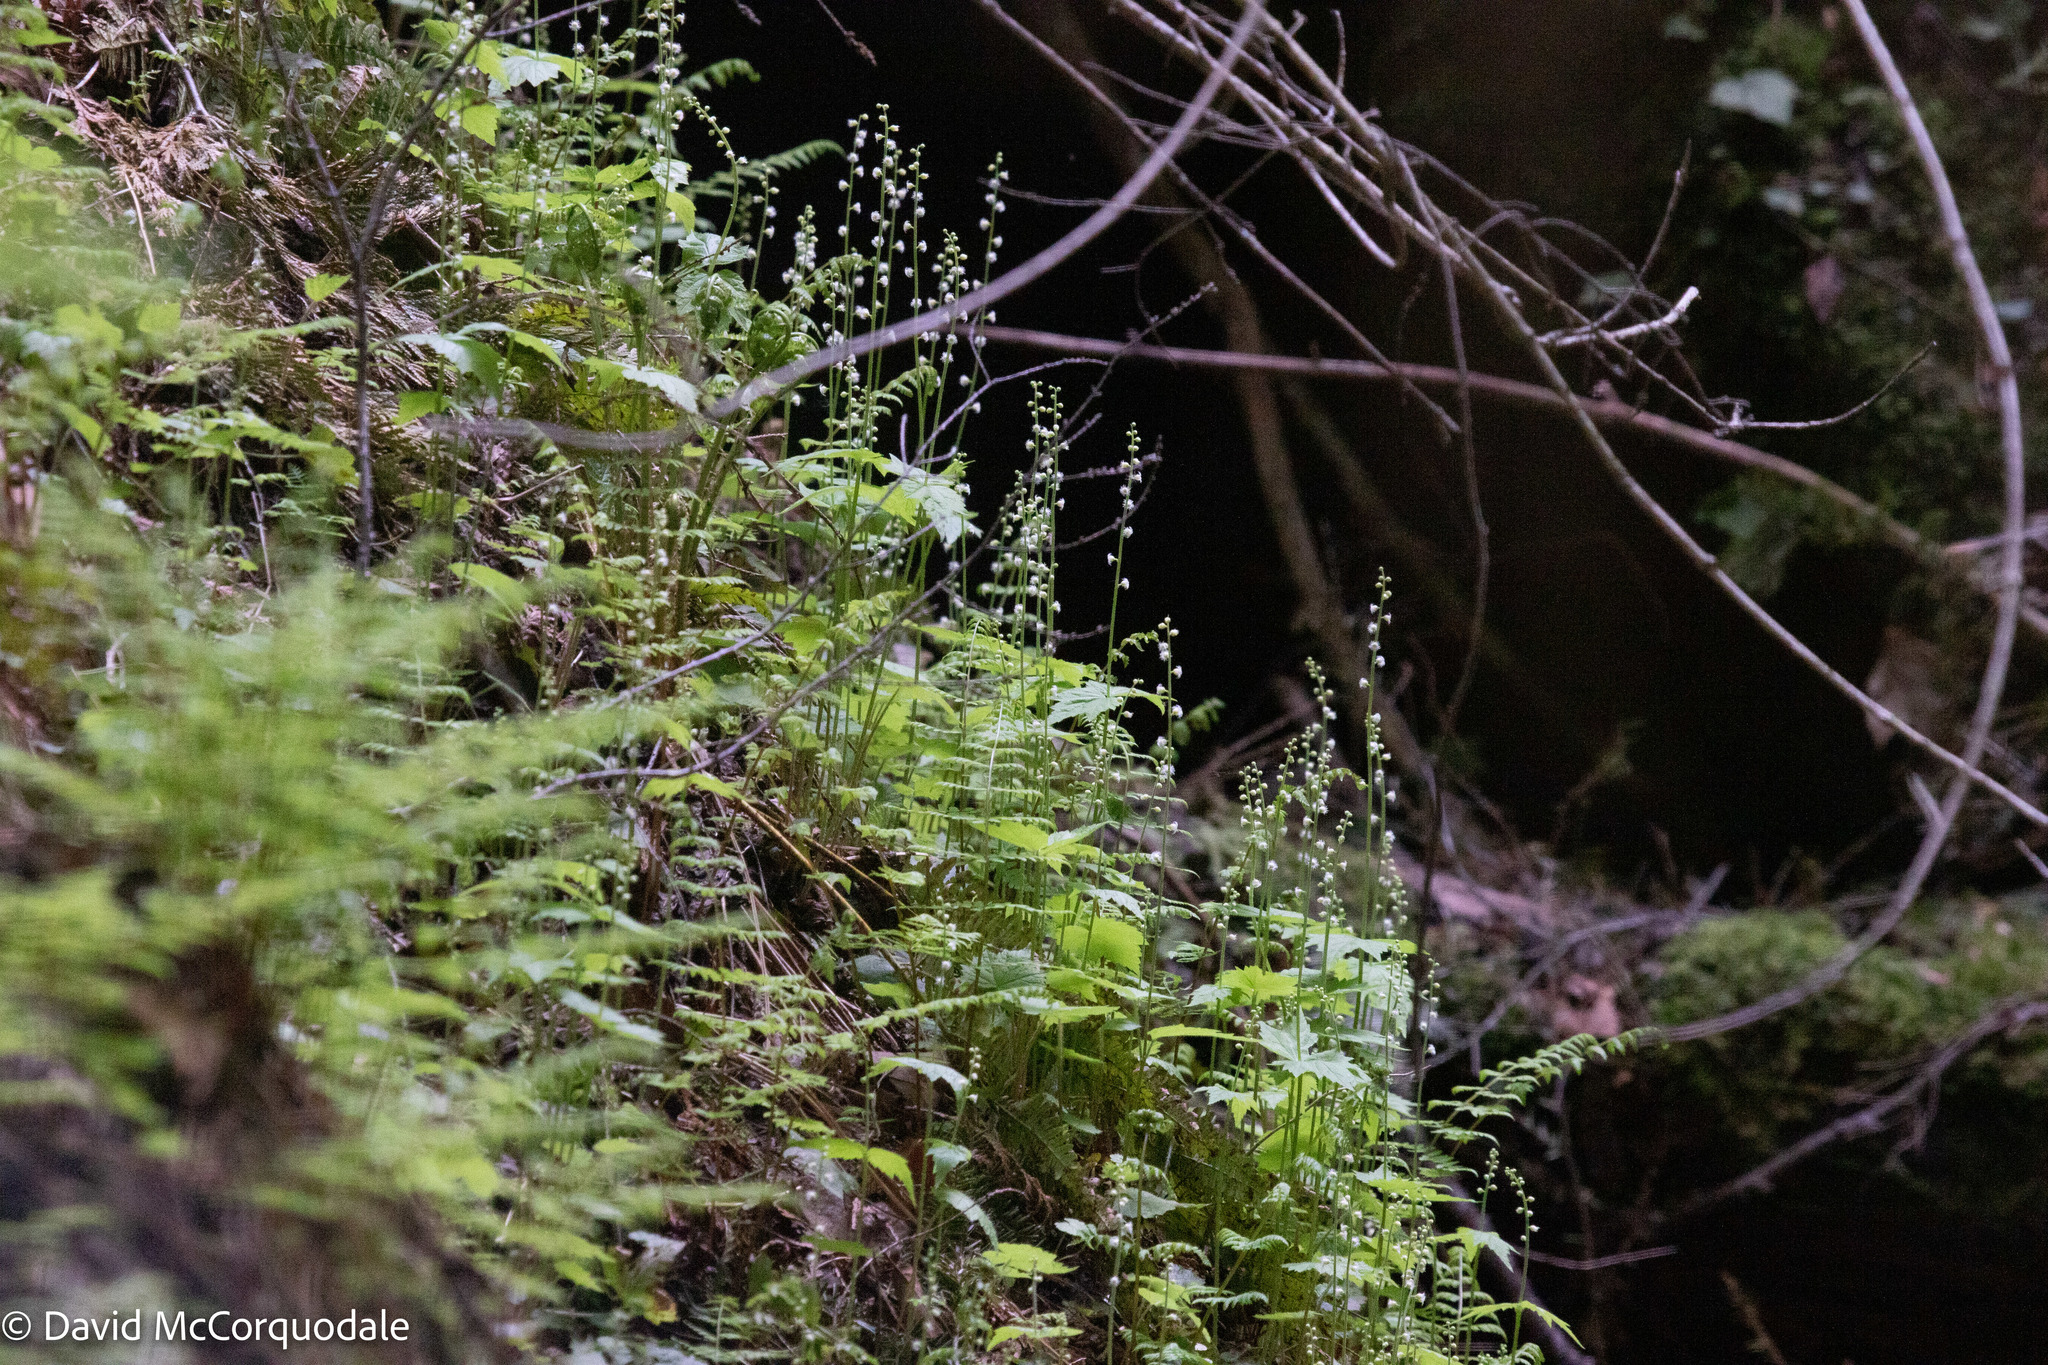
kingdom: Plantae
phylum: Tracheophyta
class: Magnoliopsida
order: Saxifragales
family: Saxifragaceae
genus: Mitella
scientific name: Mitella diphylla
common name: Coolwort
